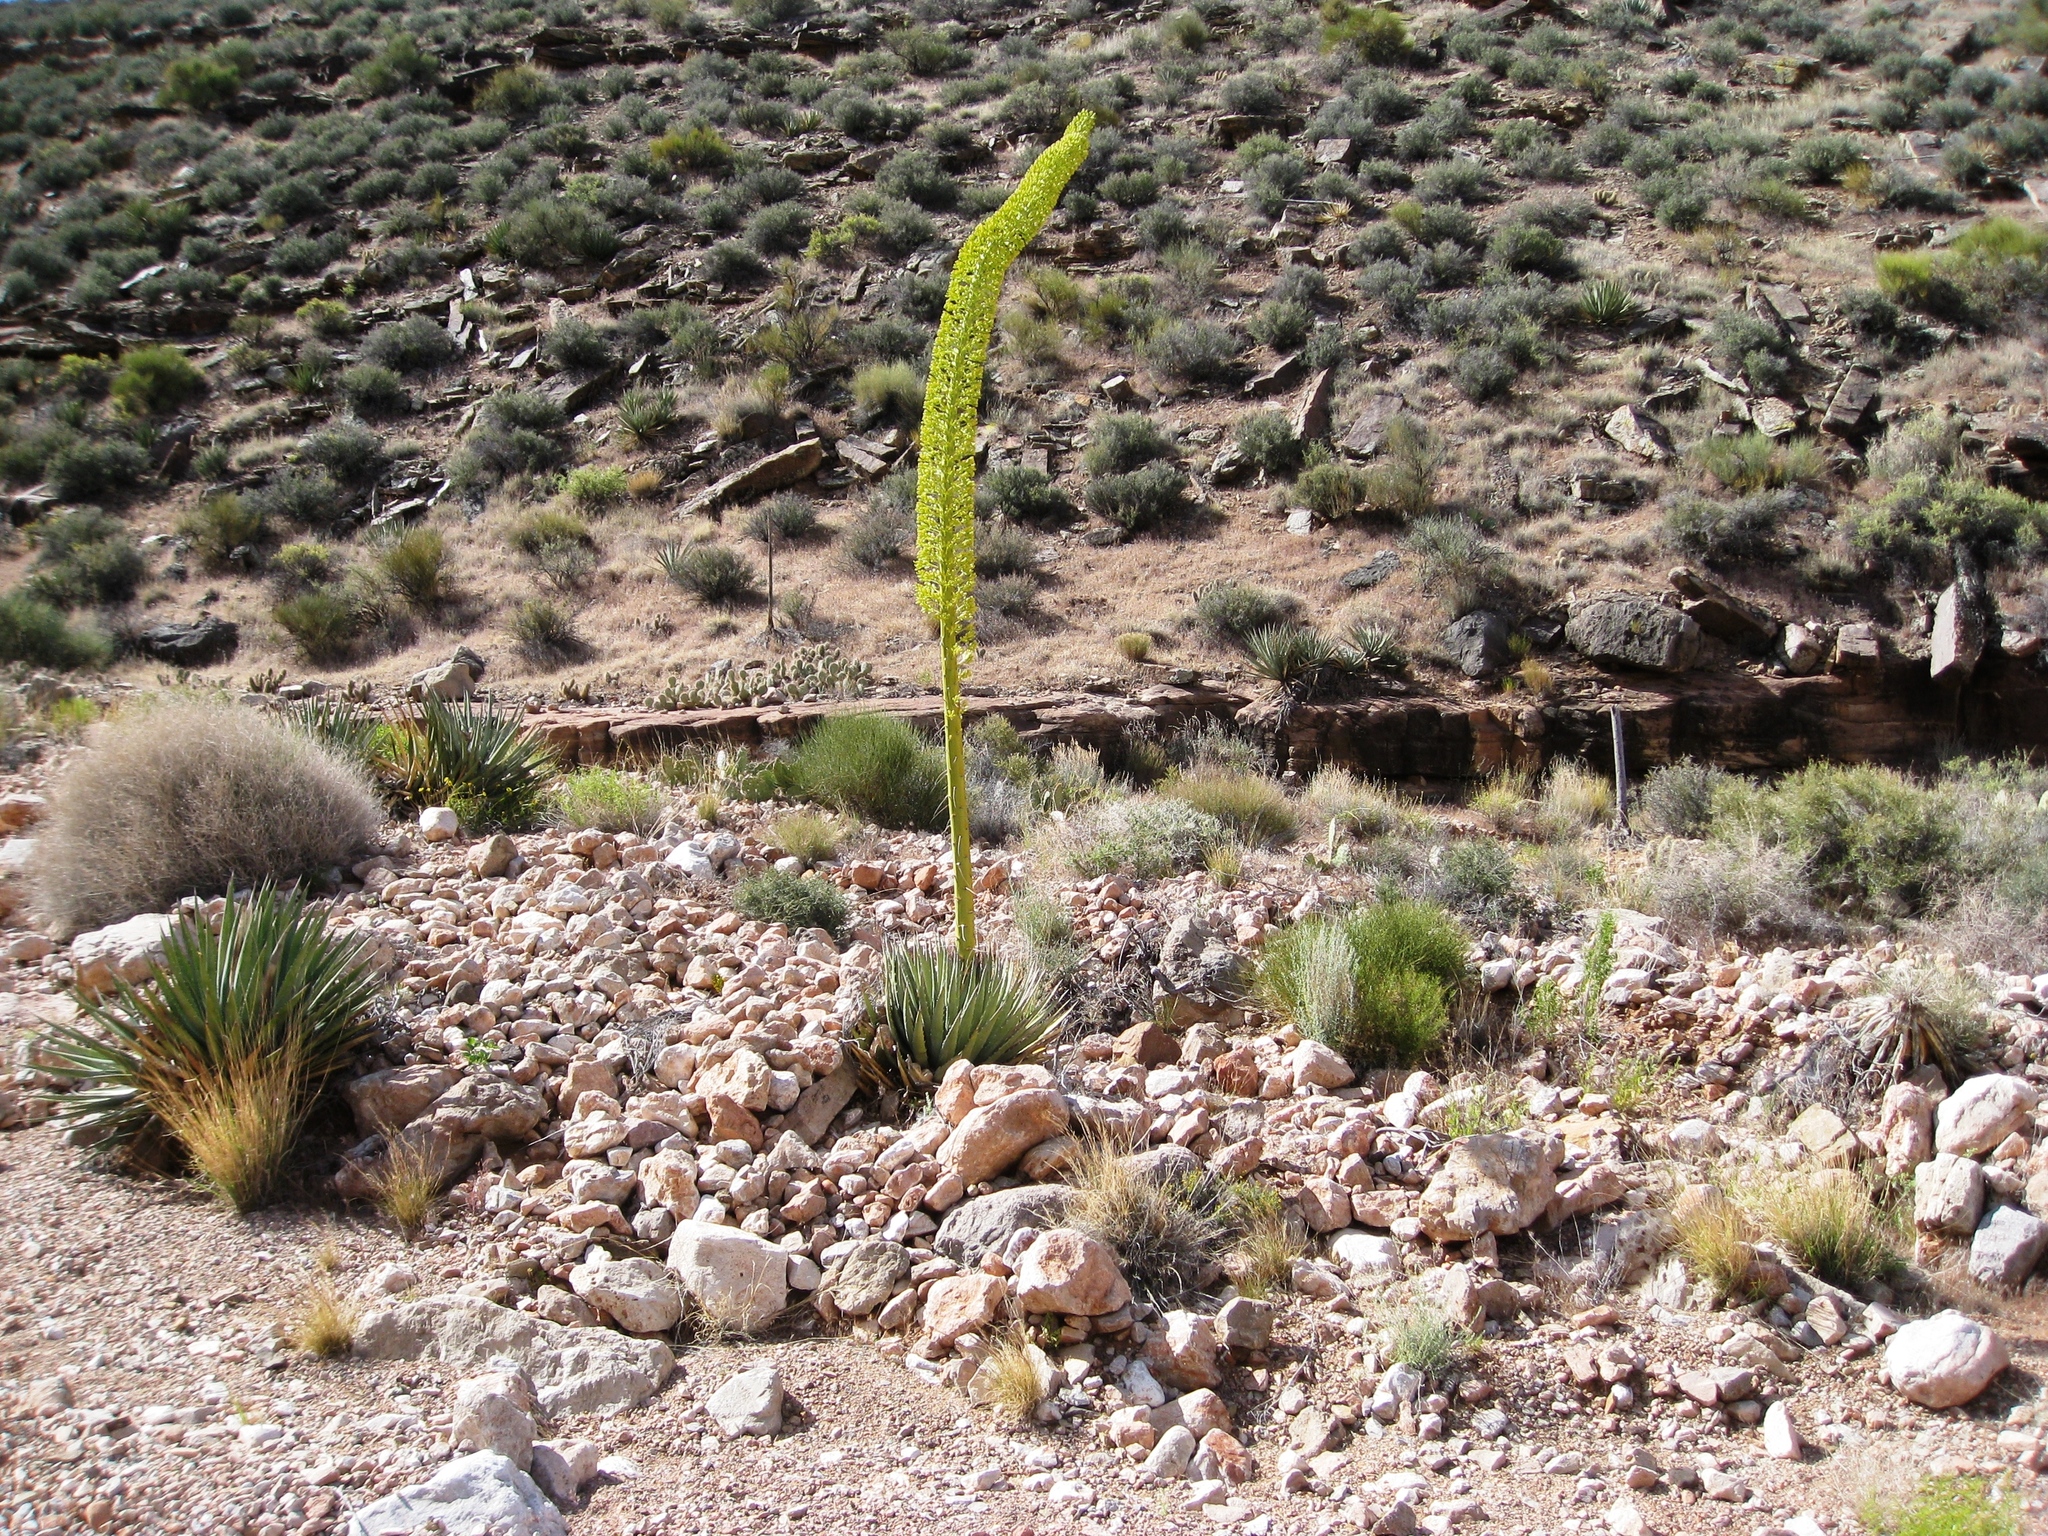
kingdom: Plantae
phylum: Tracheophyta
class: Liliopsida
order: Asparagales
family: Asparagaceae
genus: Agave
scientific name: Agave utahensis
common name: Utah agave
